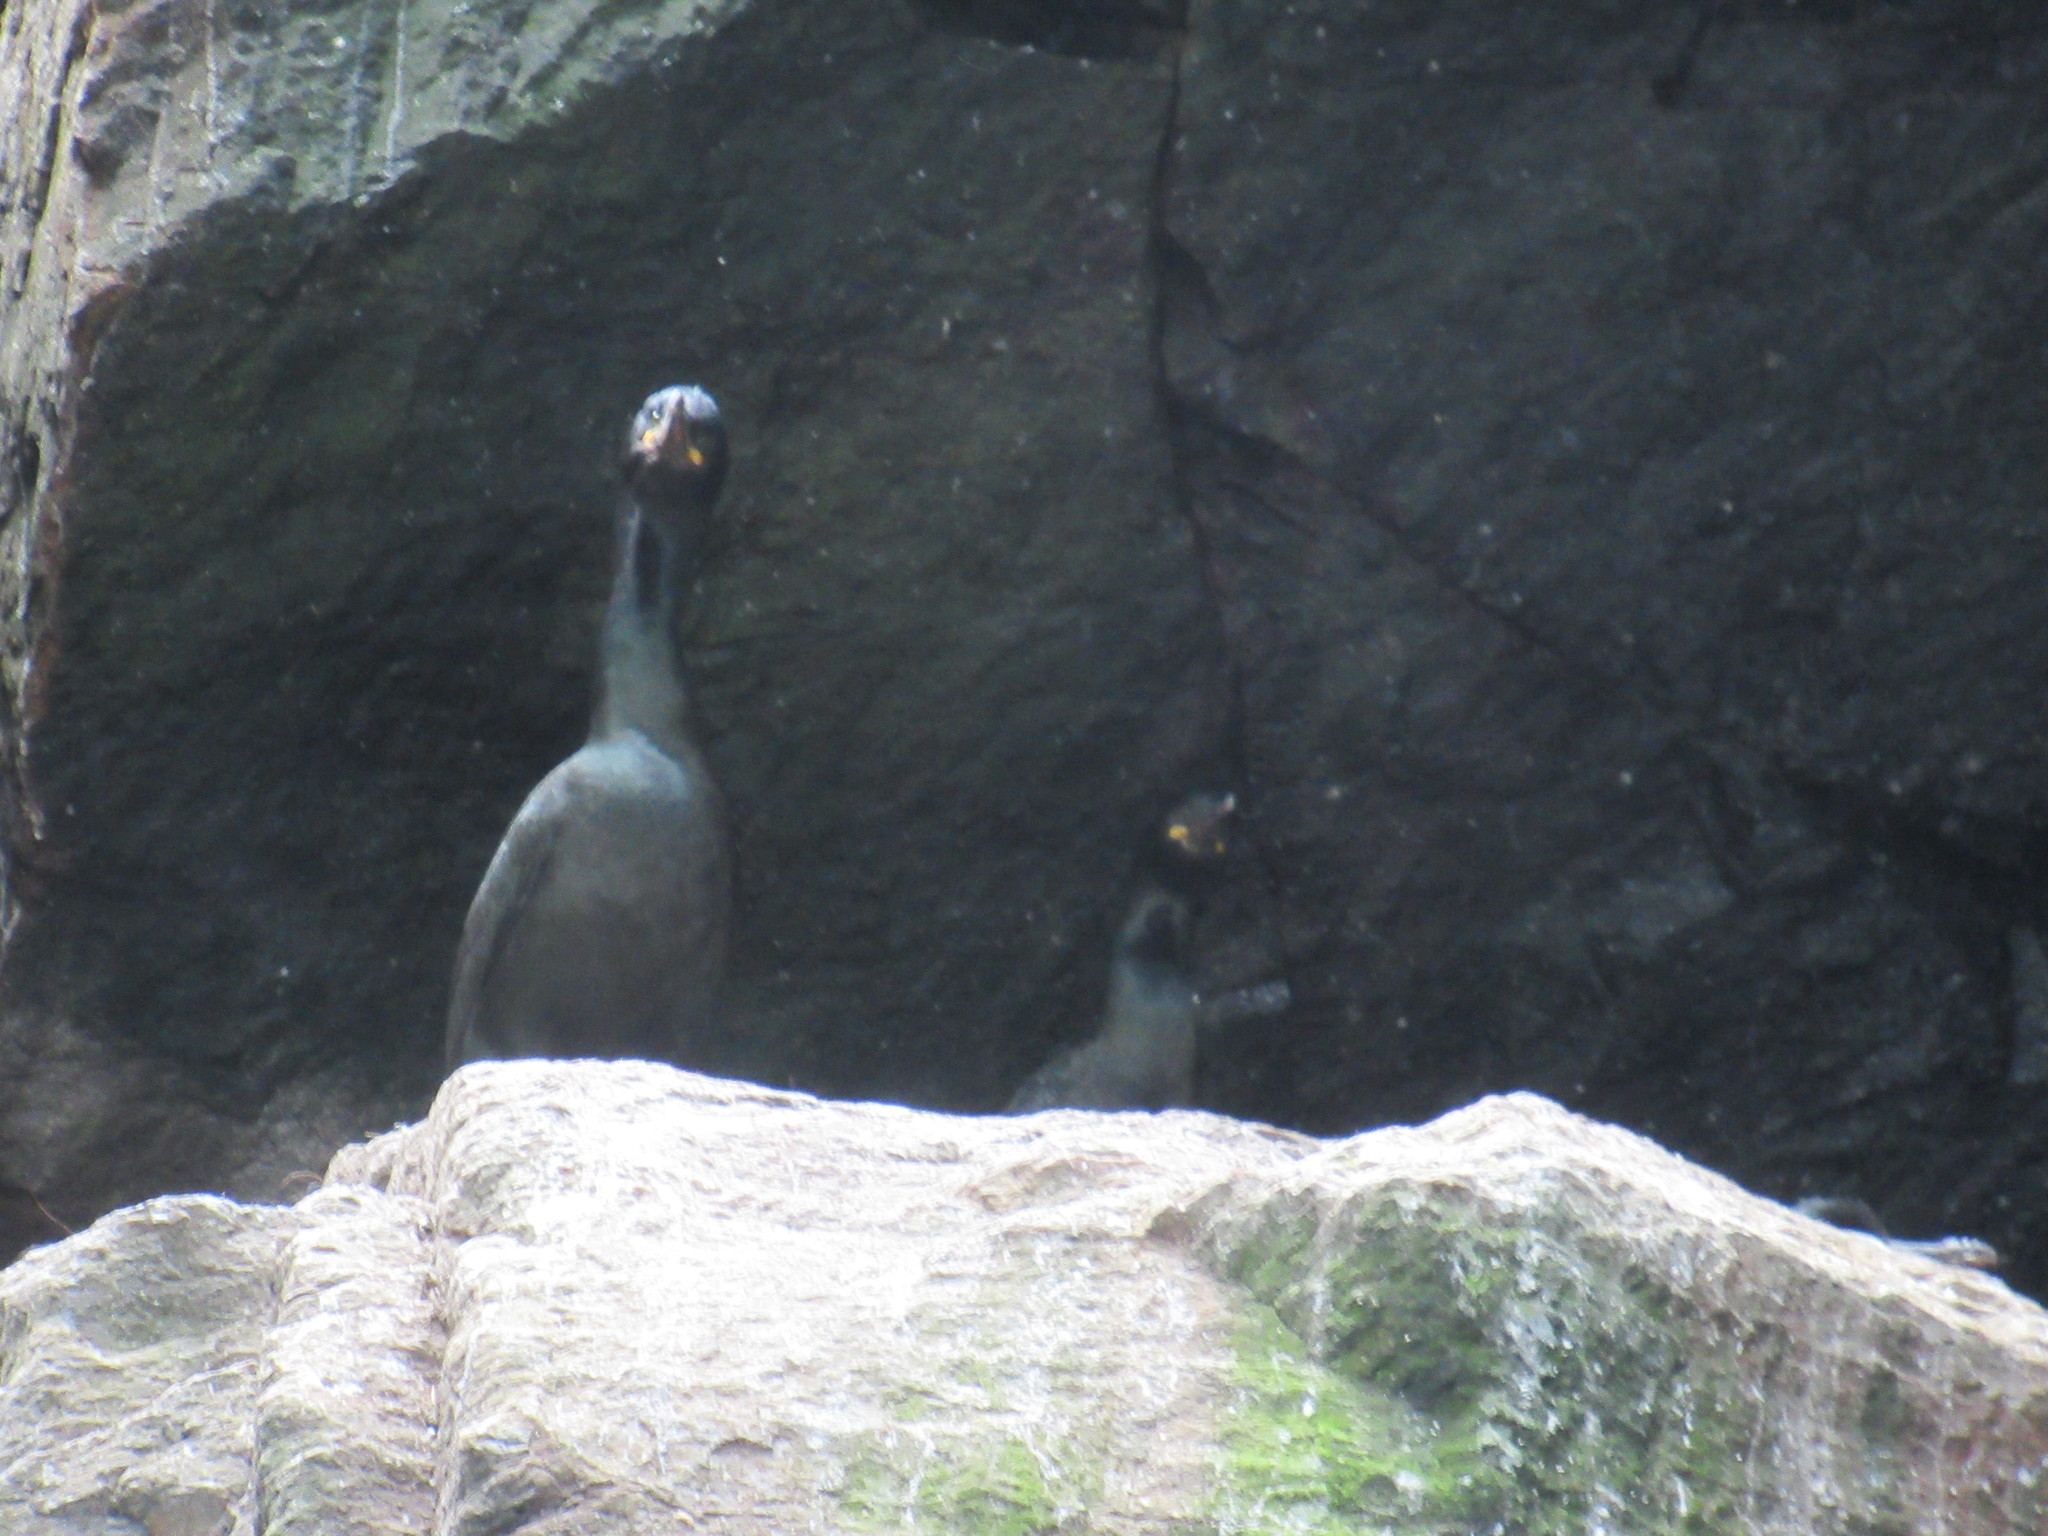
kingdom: Animalia
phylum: Chordata
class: Aves
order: Suliformes
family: Phalacrocoracidae
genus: Phalacrocorax
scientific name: Phalacrocorax aristotelis
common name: European shag
